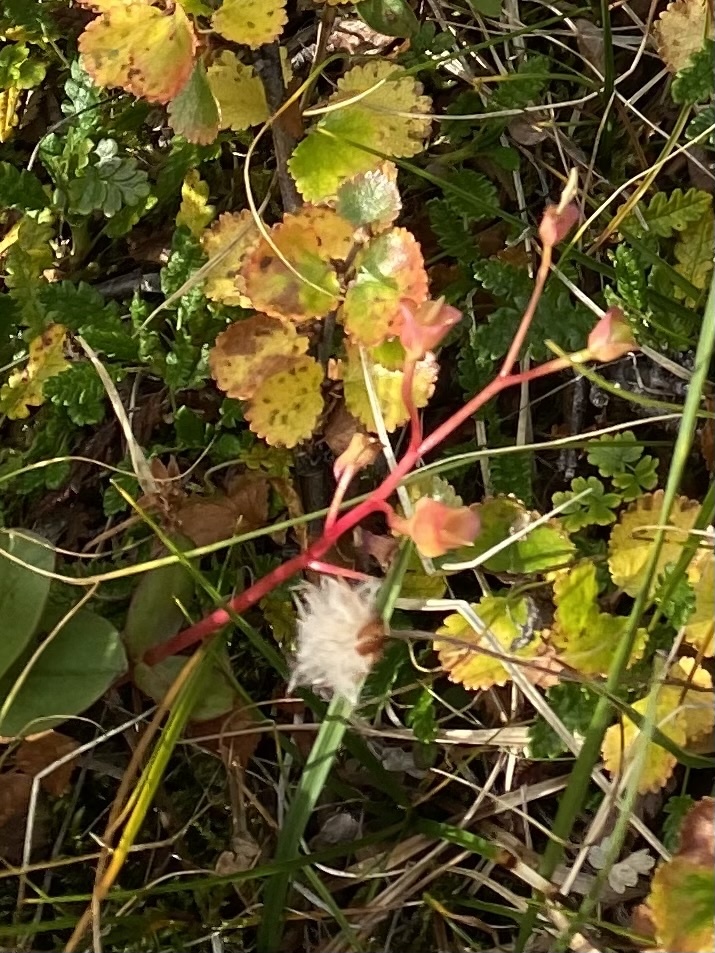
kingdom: Plantae
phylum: Tracheophyta
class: Magnoliopsida
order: Caryophyllales
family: Montiaceae
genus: Claytonia
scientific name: Claytonia joanneana
